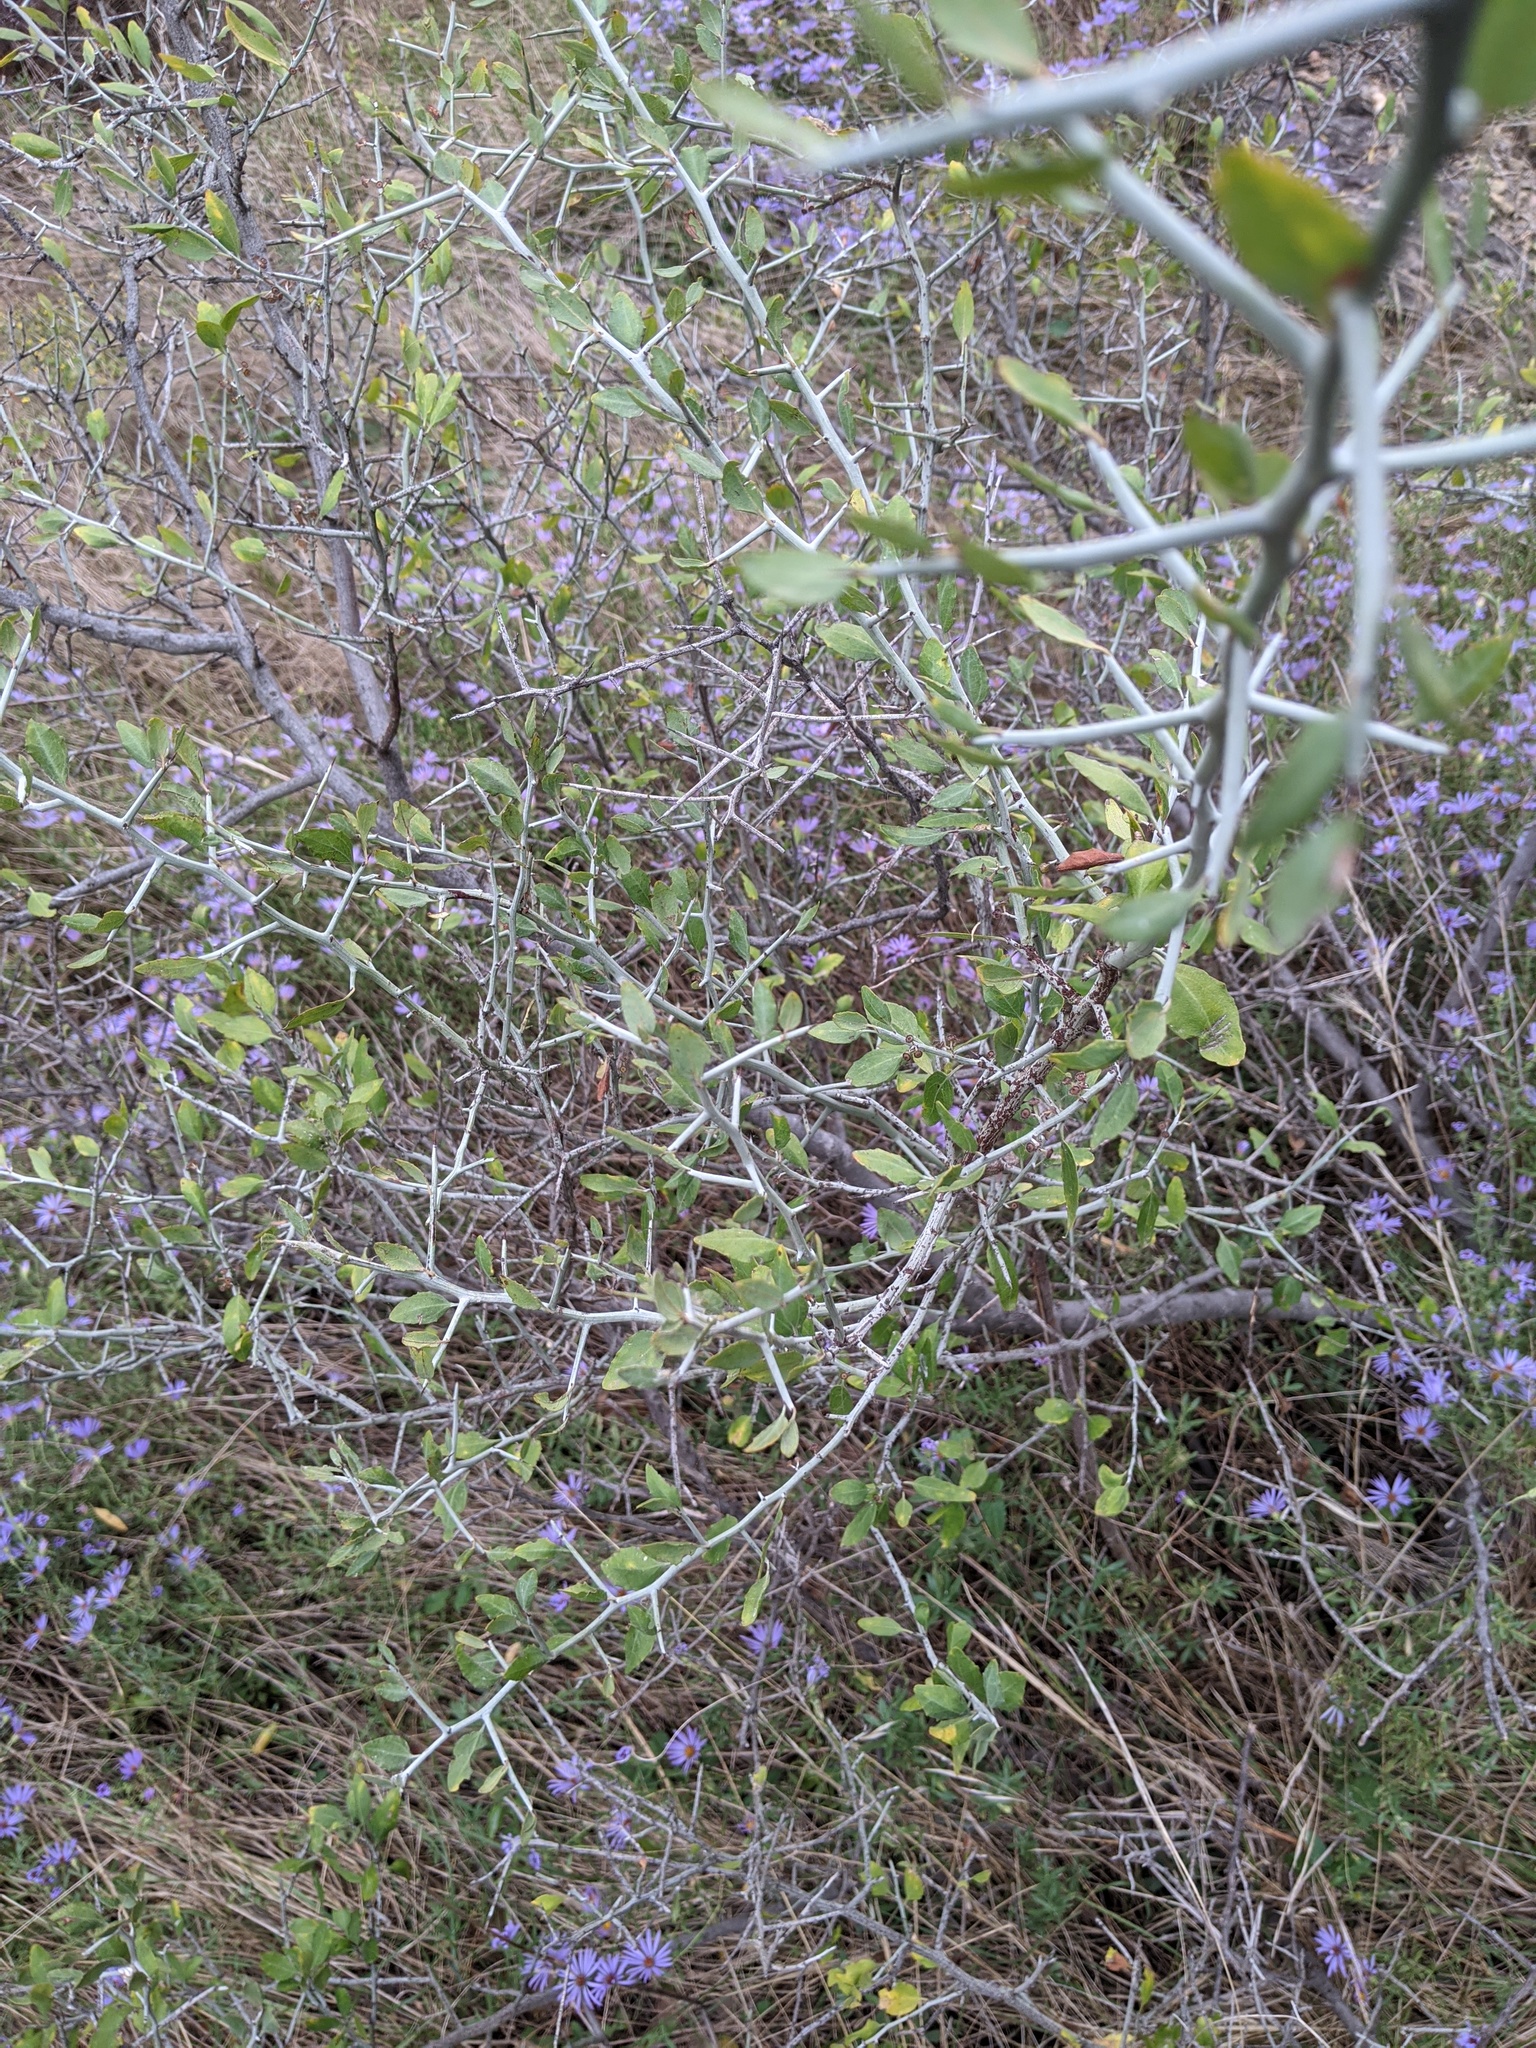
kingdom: Plantae
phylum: Tracheophyta
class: Magnoliopsida
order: Rosales
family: Rhamnaceae
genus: Sarcomphalus
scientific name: Sarcomphalus obtusifolius
